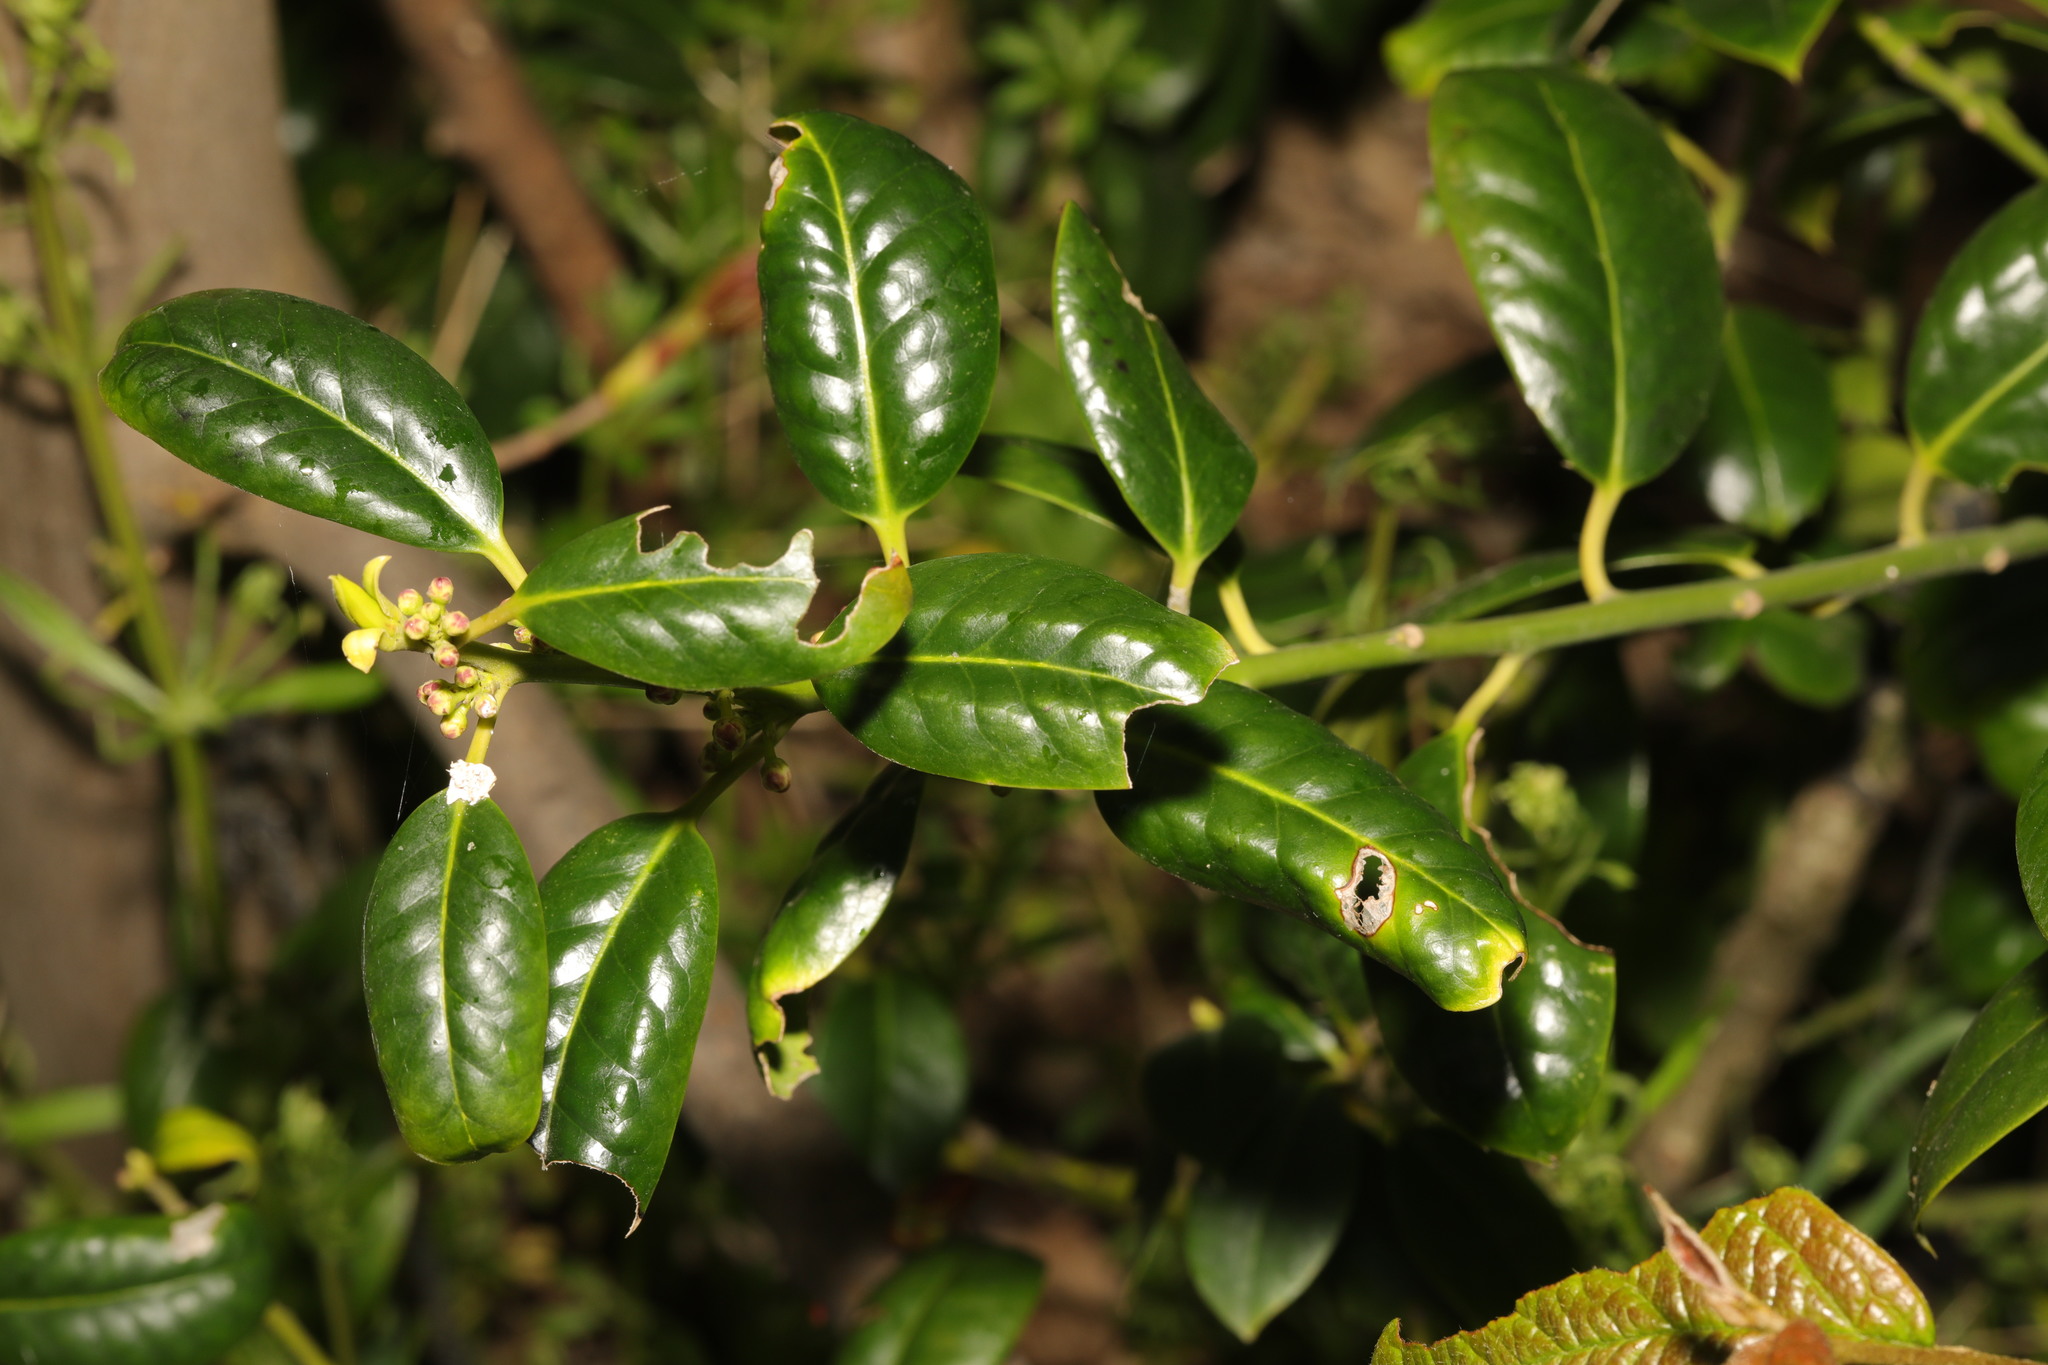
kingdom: Plantae
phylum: Tracheophyta
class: Magnoliopsida
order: Aquifoliales
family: Aquifoliaceae
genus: Ilex
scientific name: Ilex aquifolium
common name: English holly
